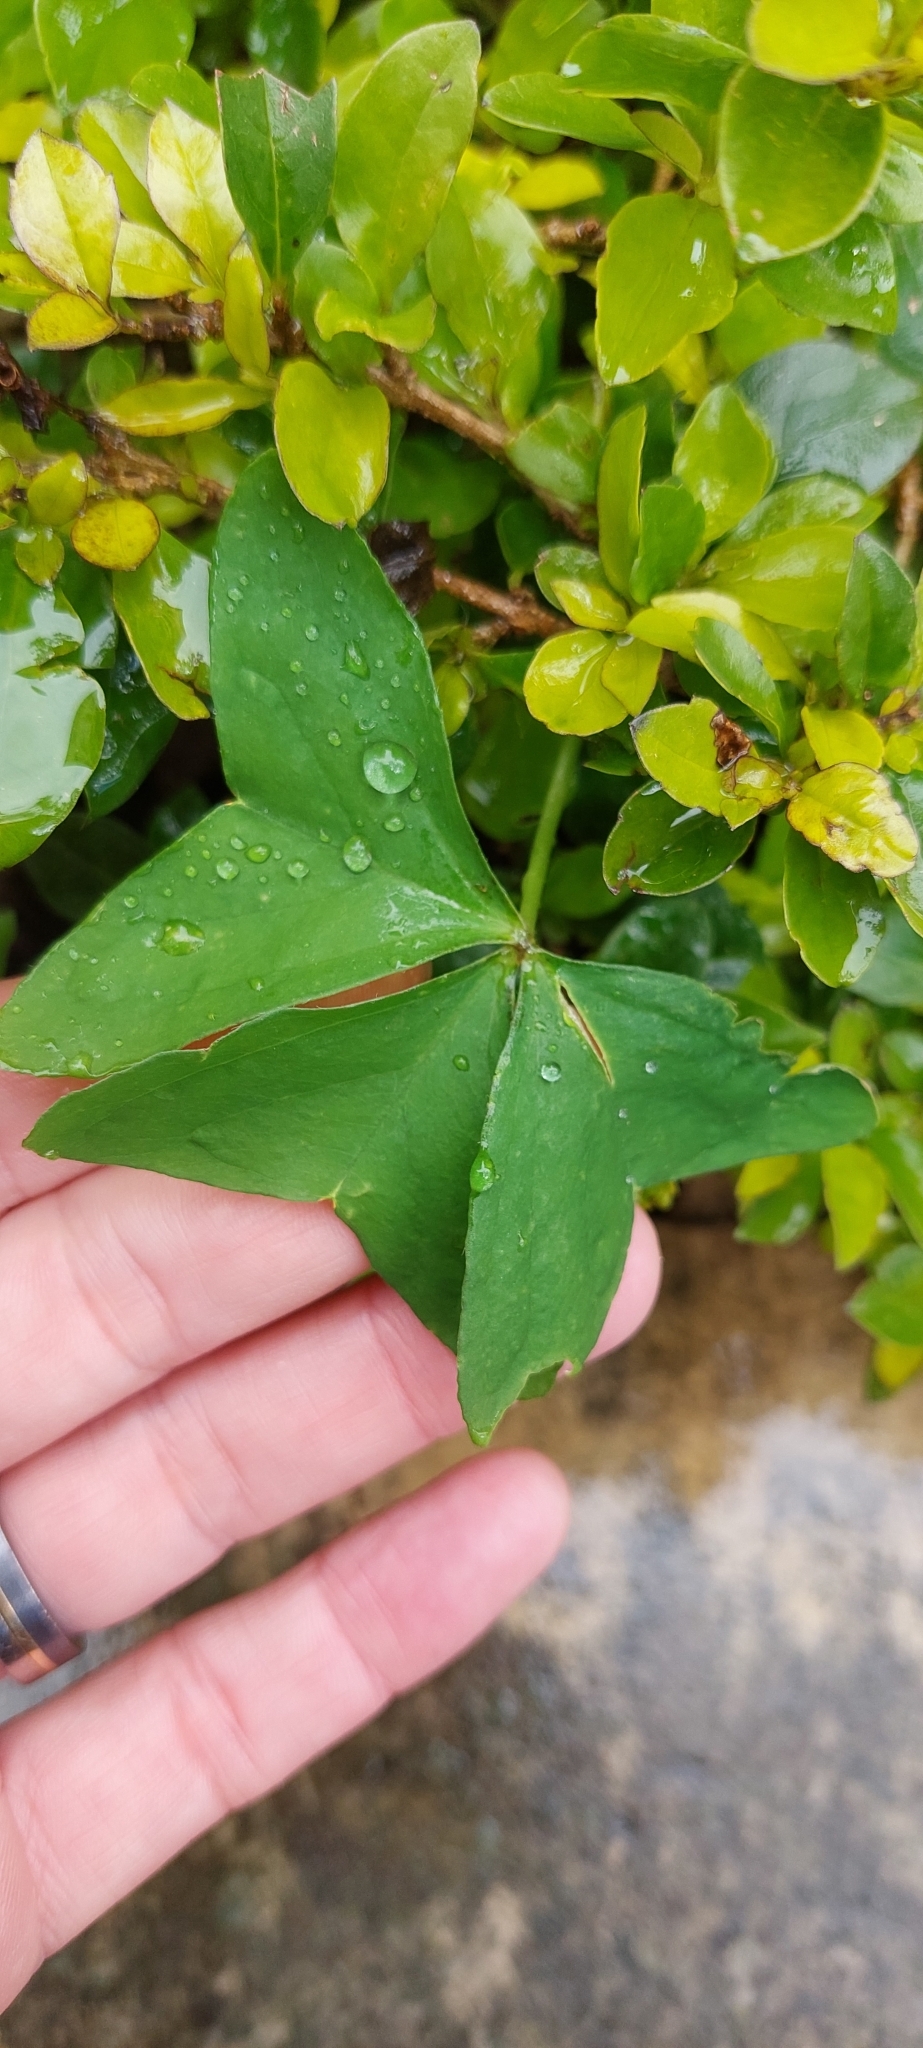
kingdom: Plantae
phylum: Tracheophyta
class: Magnoliopsida
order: Oxalidales
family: Oxalidaceae
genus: Oxalis
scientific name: Oxalis latifolia
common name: Garden pink-sorrel
